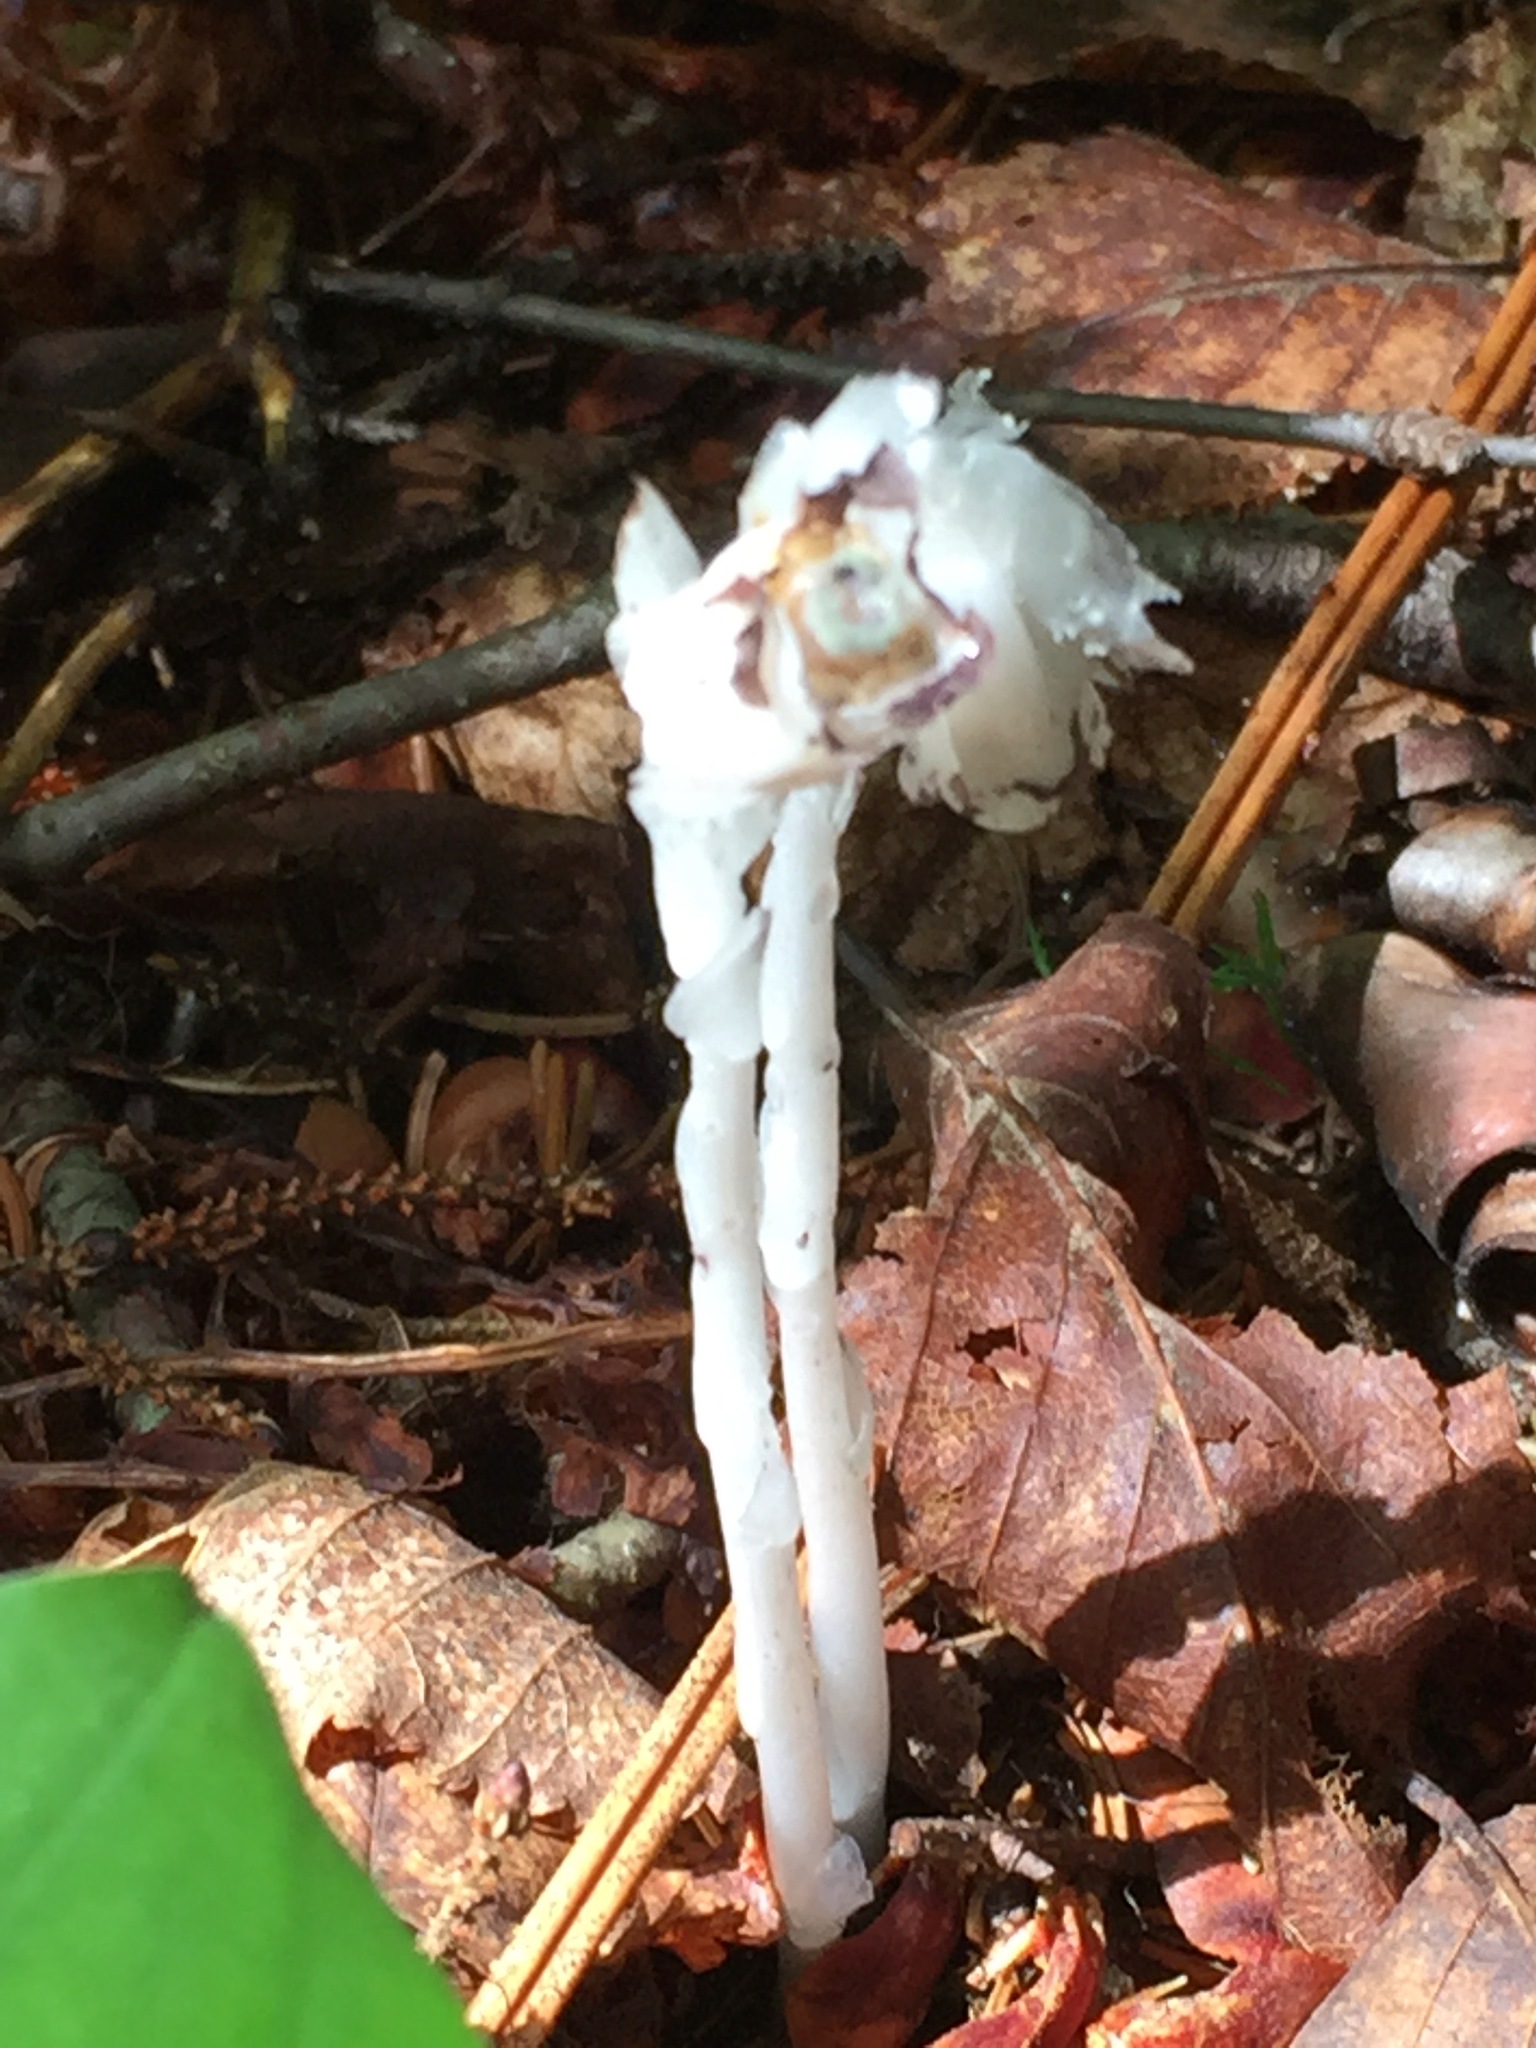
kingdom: Plantae
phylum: Tracheophyta
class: Magnoliopsida
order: Ericales
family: Ericaceae
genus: Monotropa
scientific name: Monotropa uniflora
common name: Convulsion root
